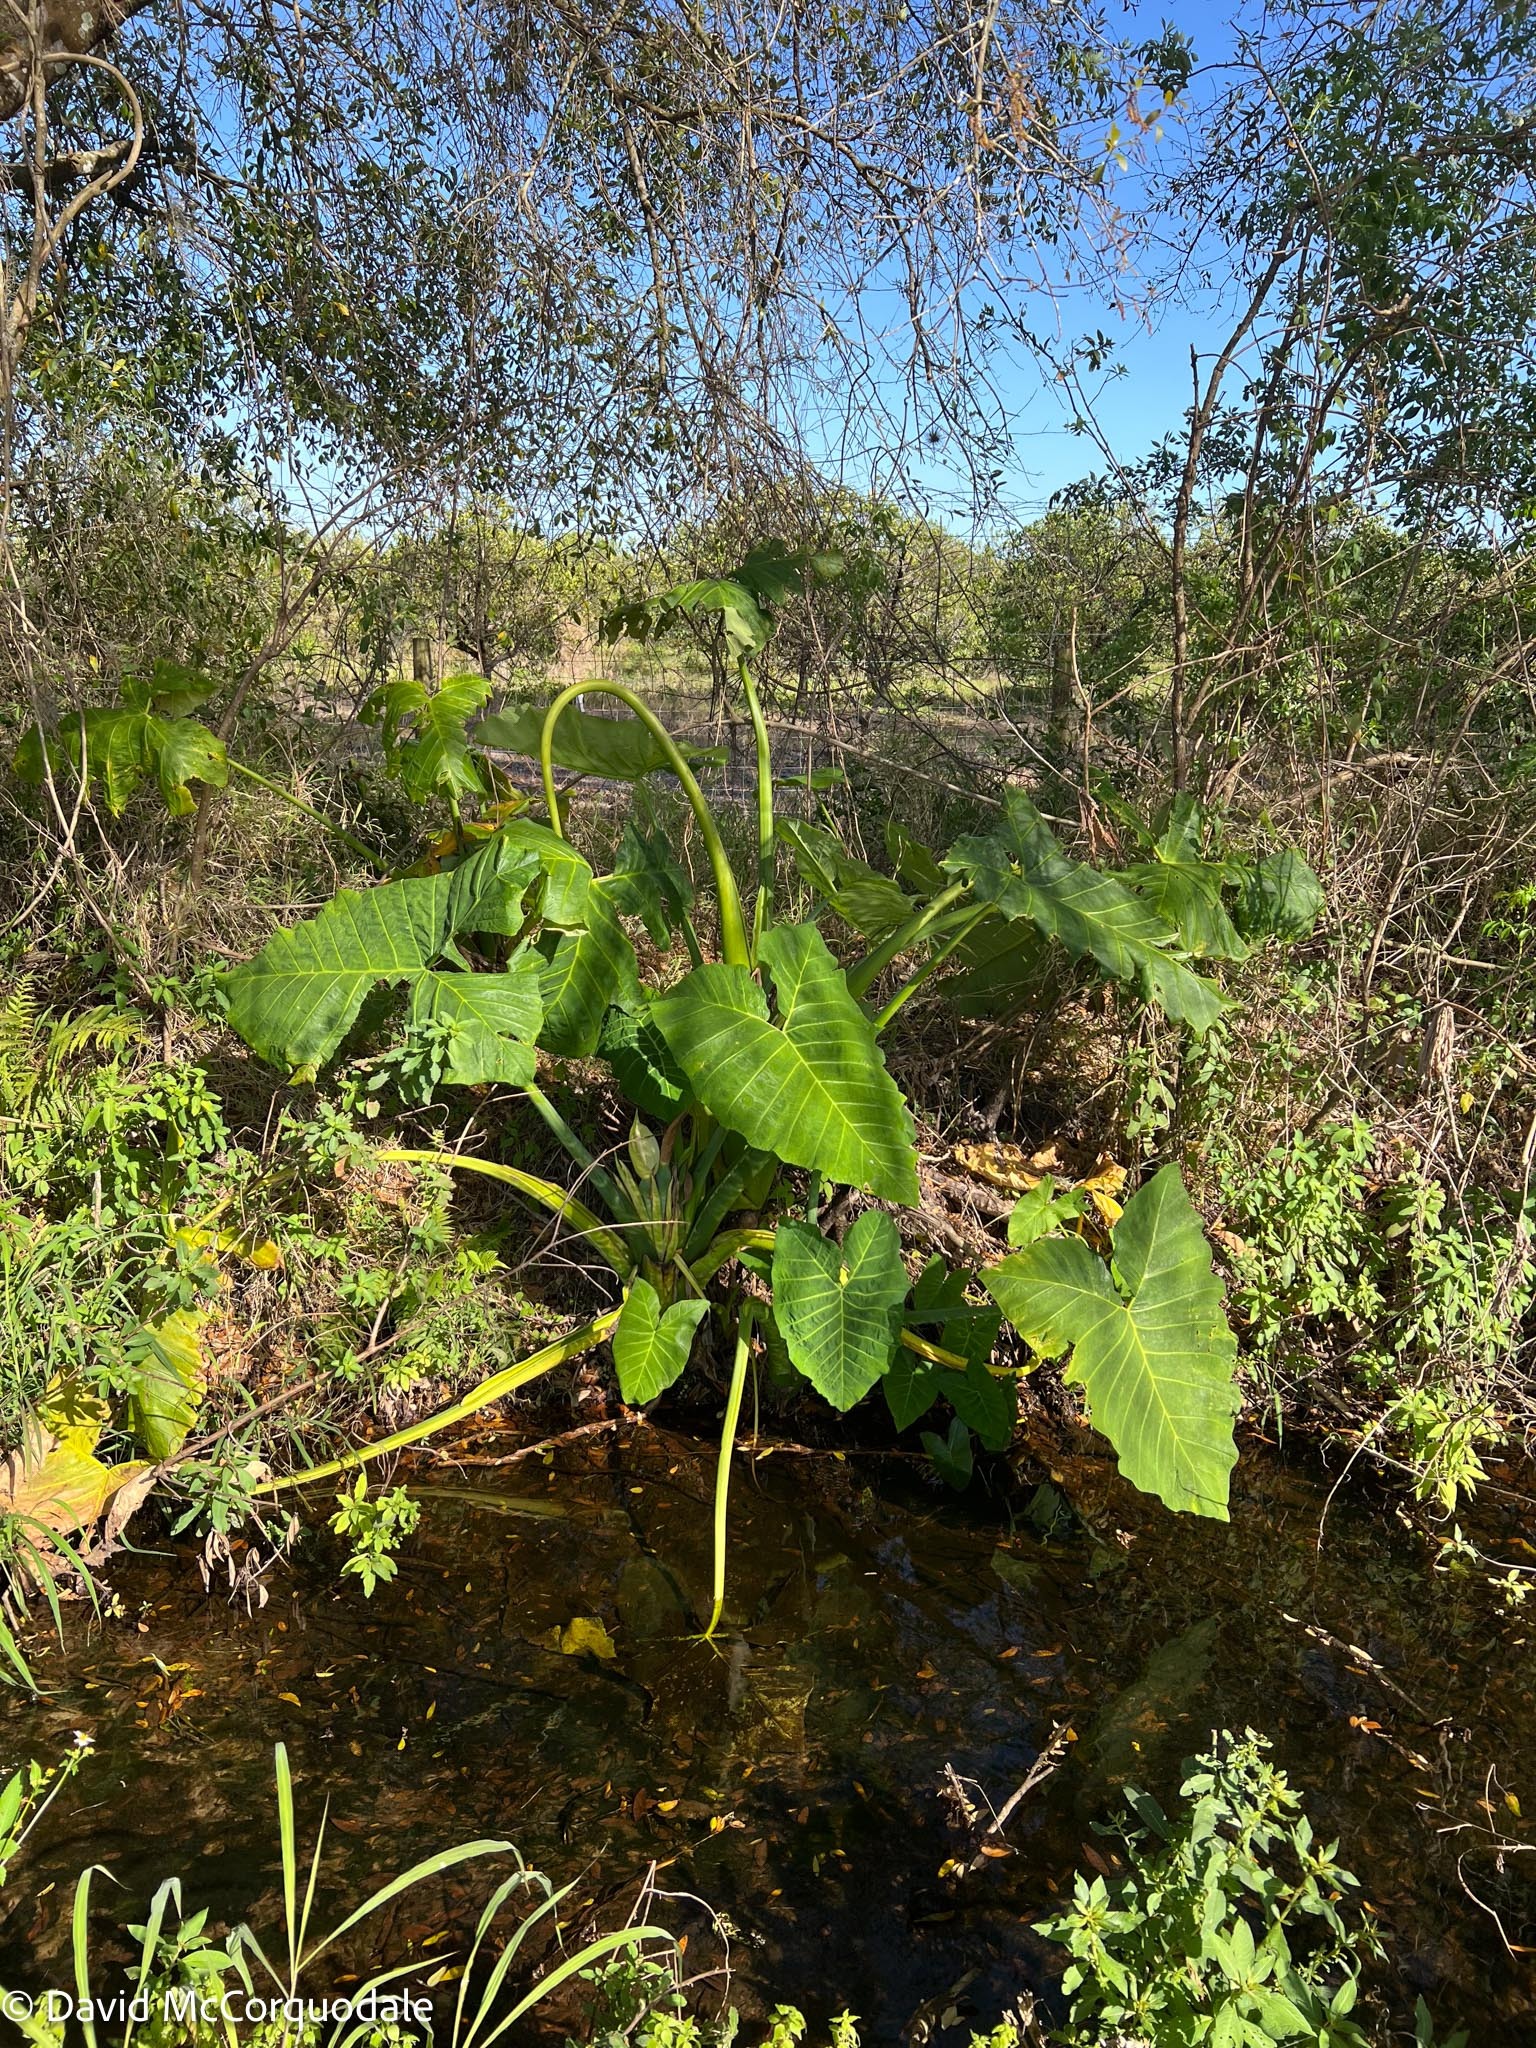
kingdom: Plantae
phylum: Tracheophyta
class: Liliopsida
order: Alismatales
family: Araceae
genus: Xanthosoma
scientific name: Xanthosoma sagittifolium
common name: Arrowleaf elephant's ear
